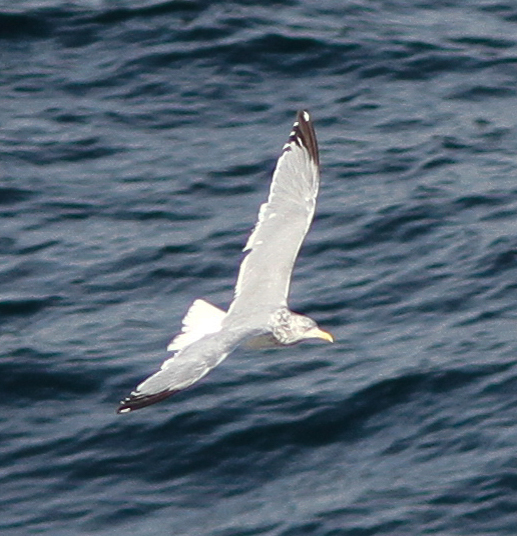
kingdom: Animalia
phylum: Chordata
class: Aves
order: Charadriiformes
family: Laridae
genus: Larus
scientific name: Larus argentatus
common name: Herring gull
